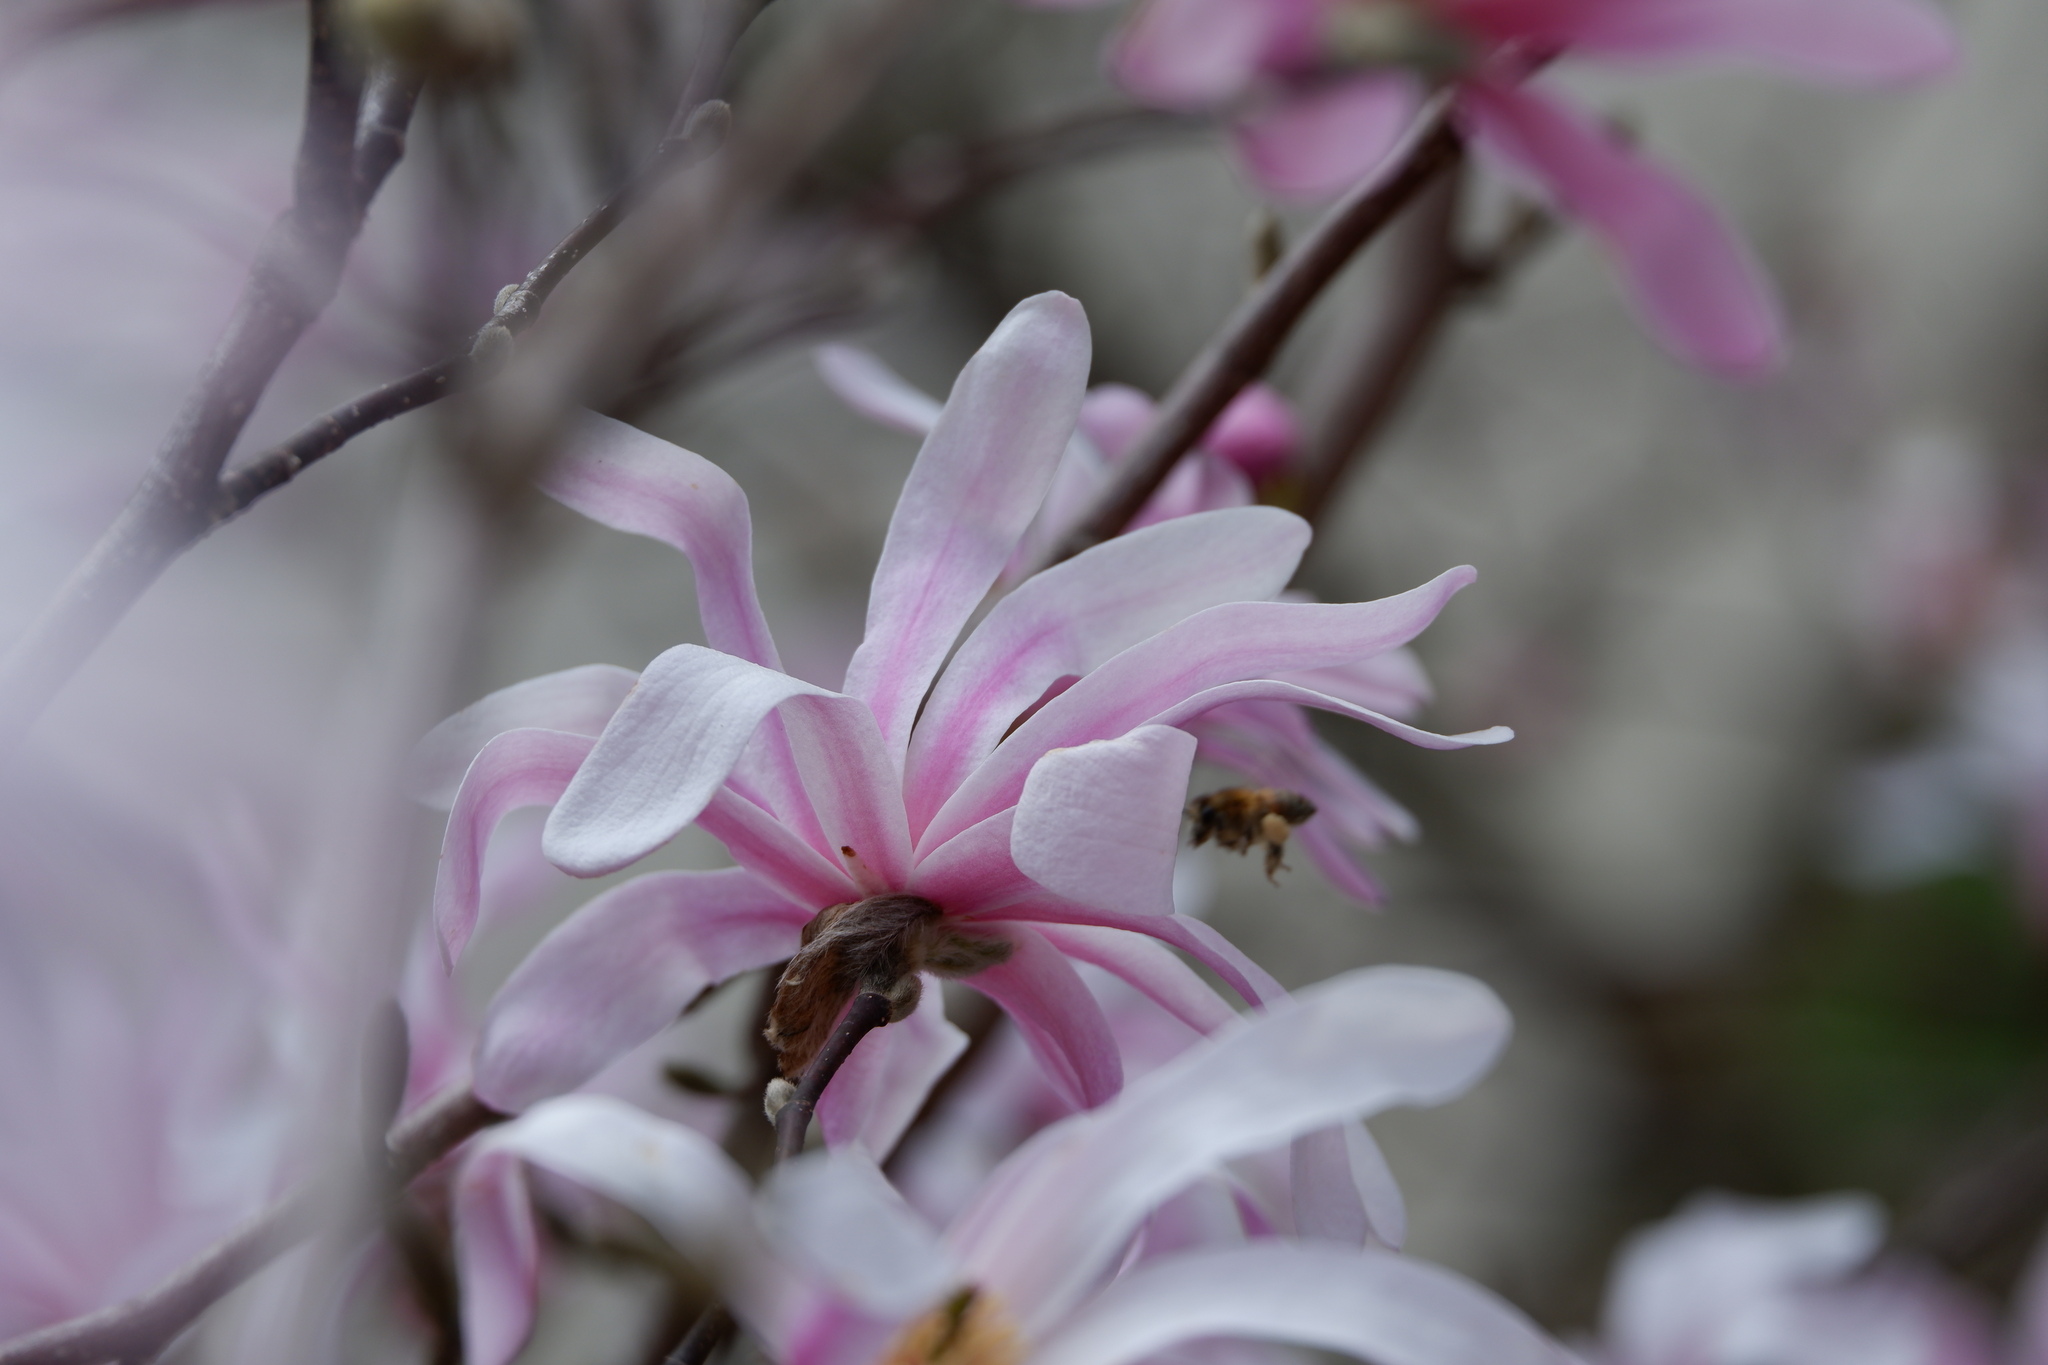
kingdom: Animalia
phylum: Arthropoda
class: Insecta
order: Hymenoptera
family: Apidae
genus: Apis
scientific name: Apis mellifera
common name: Honey bee
